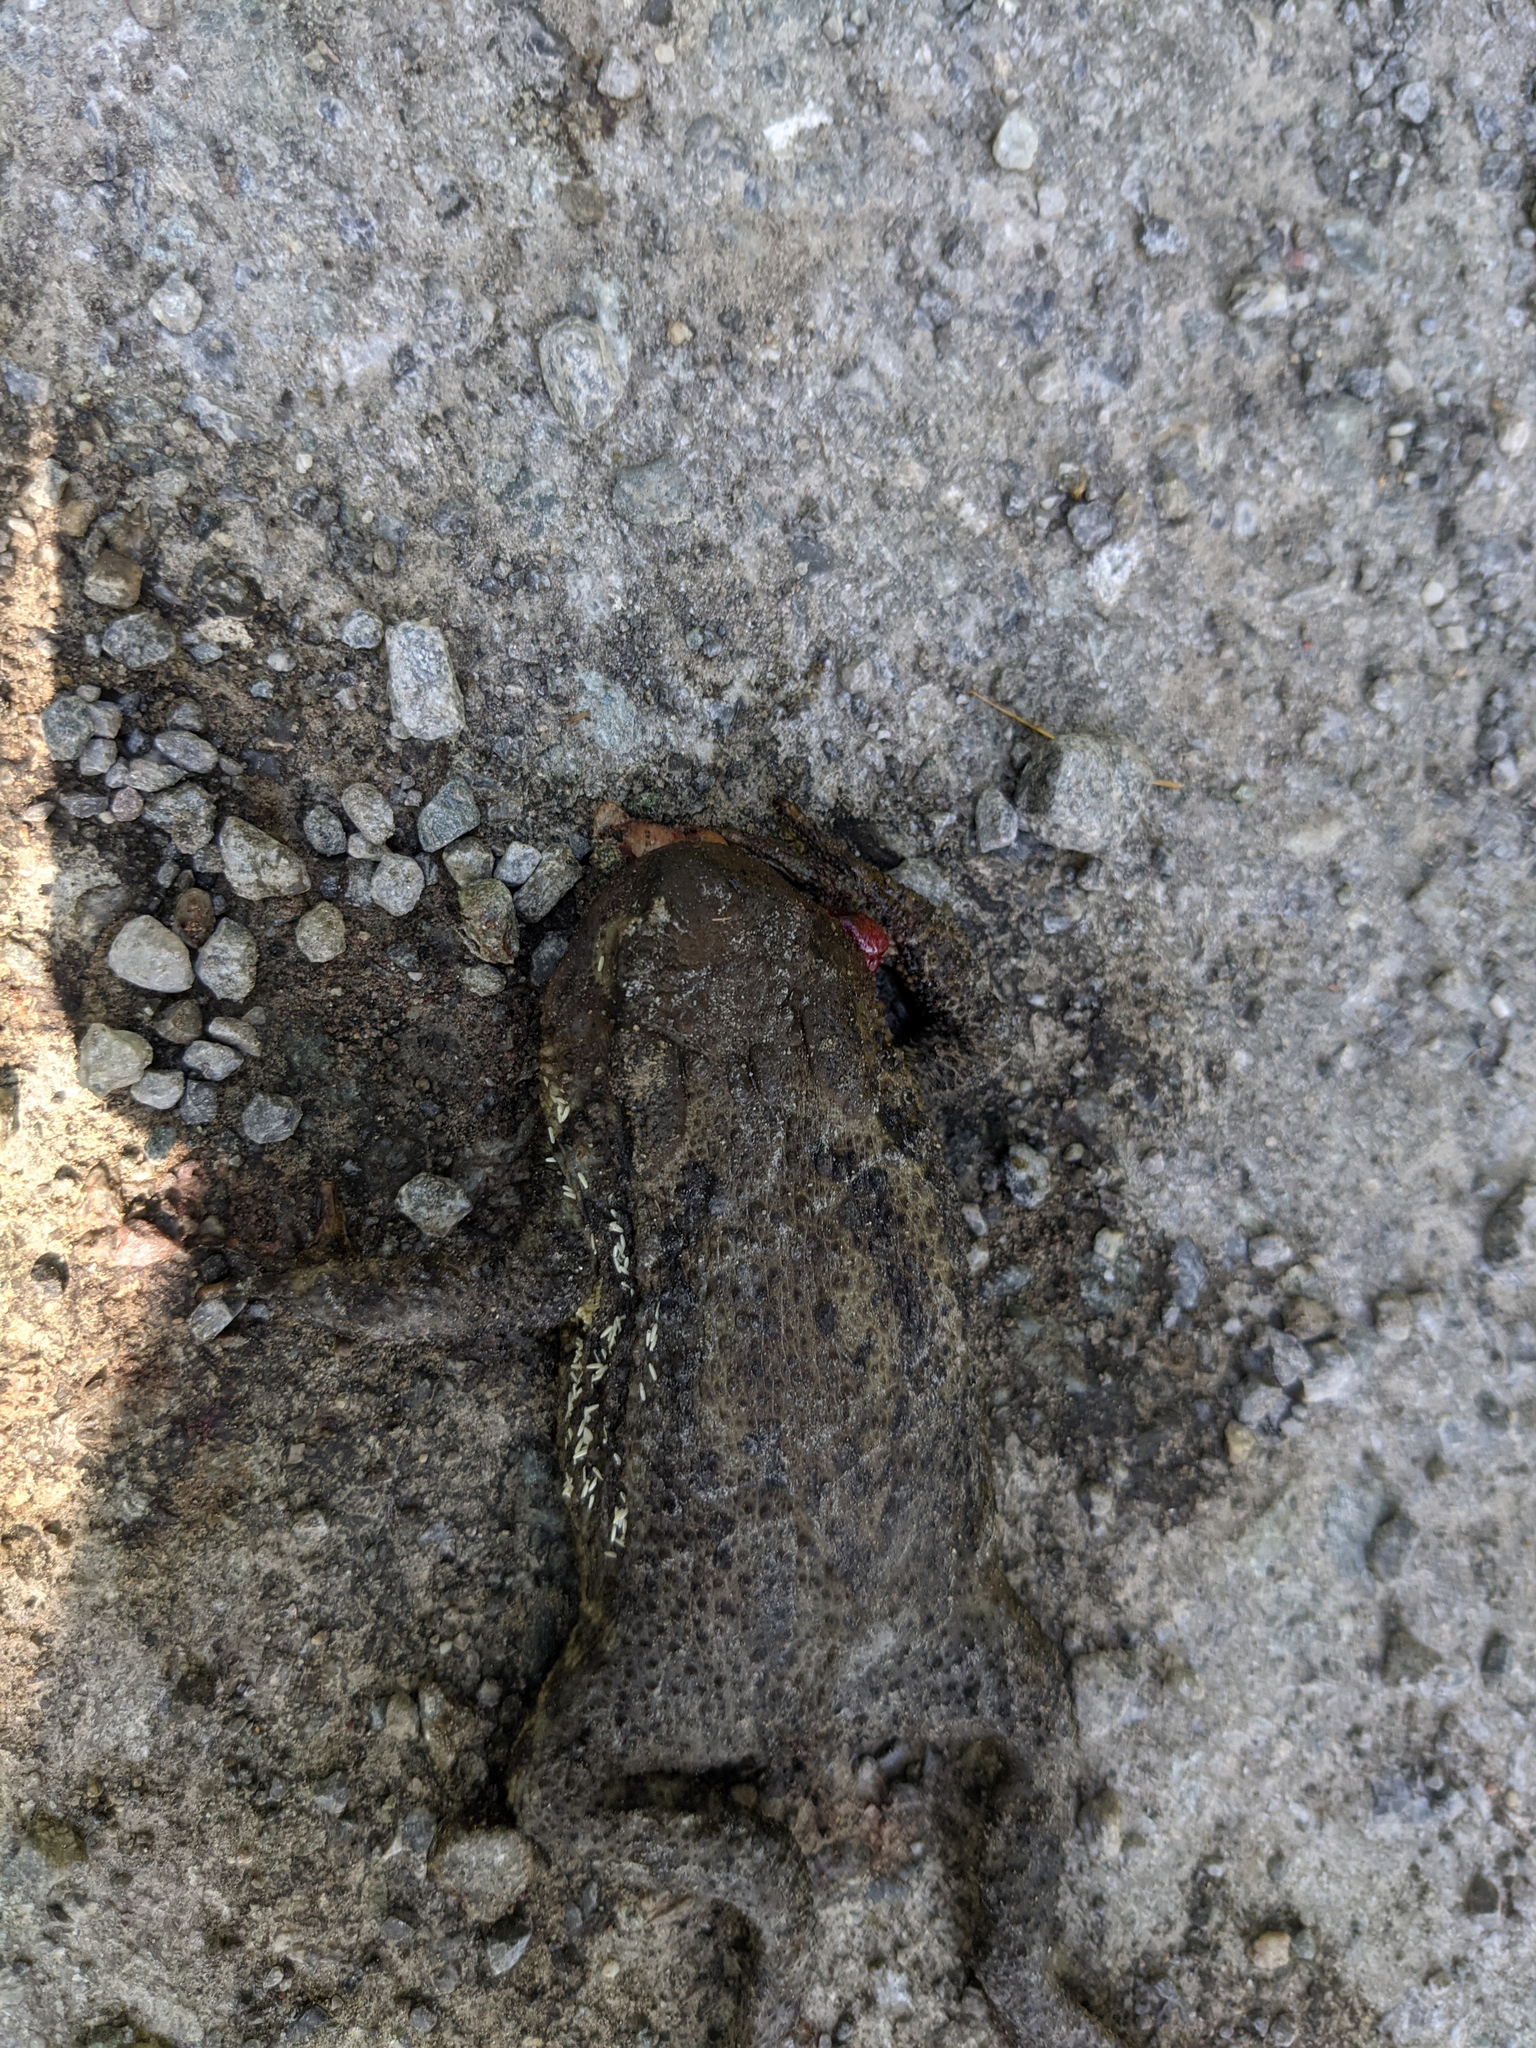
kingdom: Animalia
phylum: Chordata
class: Amphibia
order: Anura
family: Bufonidae
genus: Bufo
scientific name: Bufo bufo
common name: Common toad
